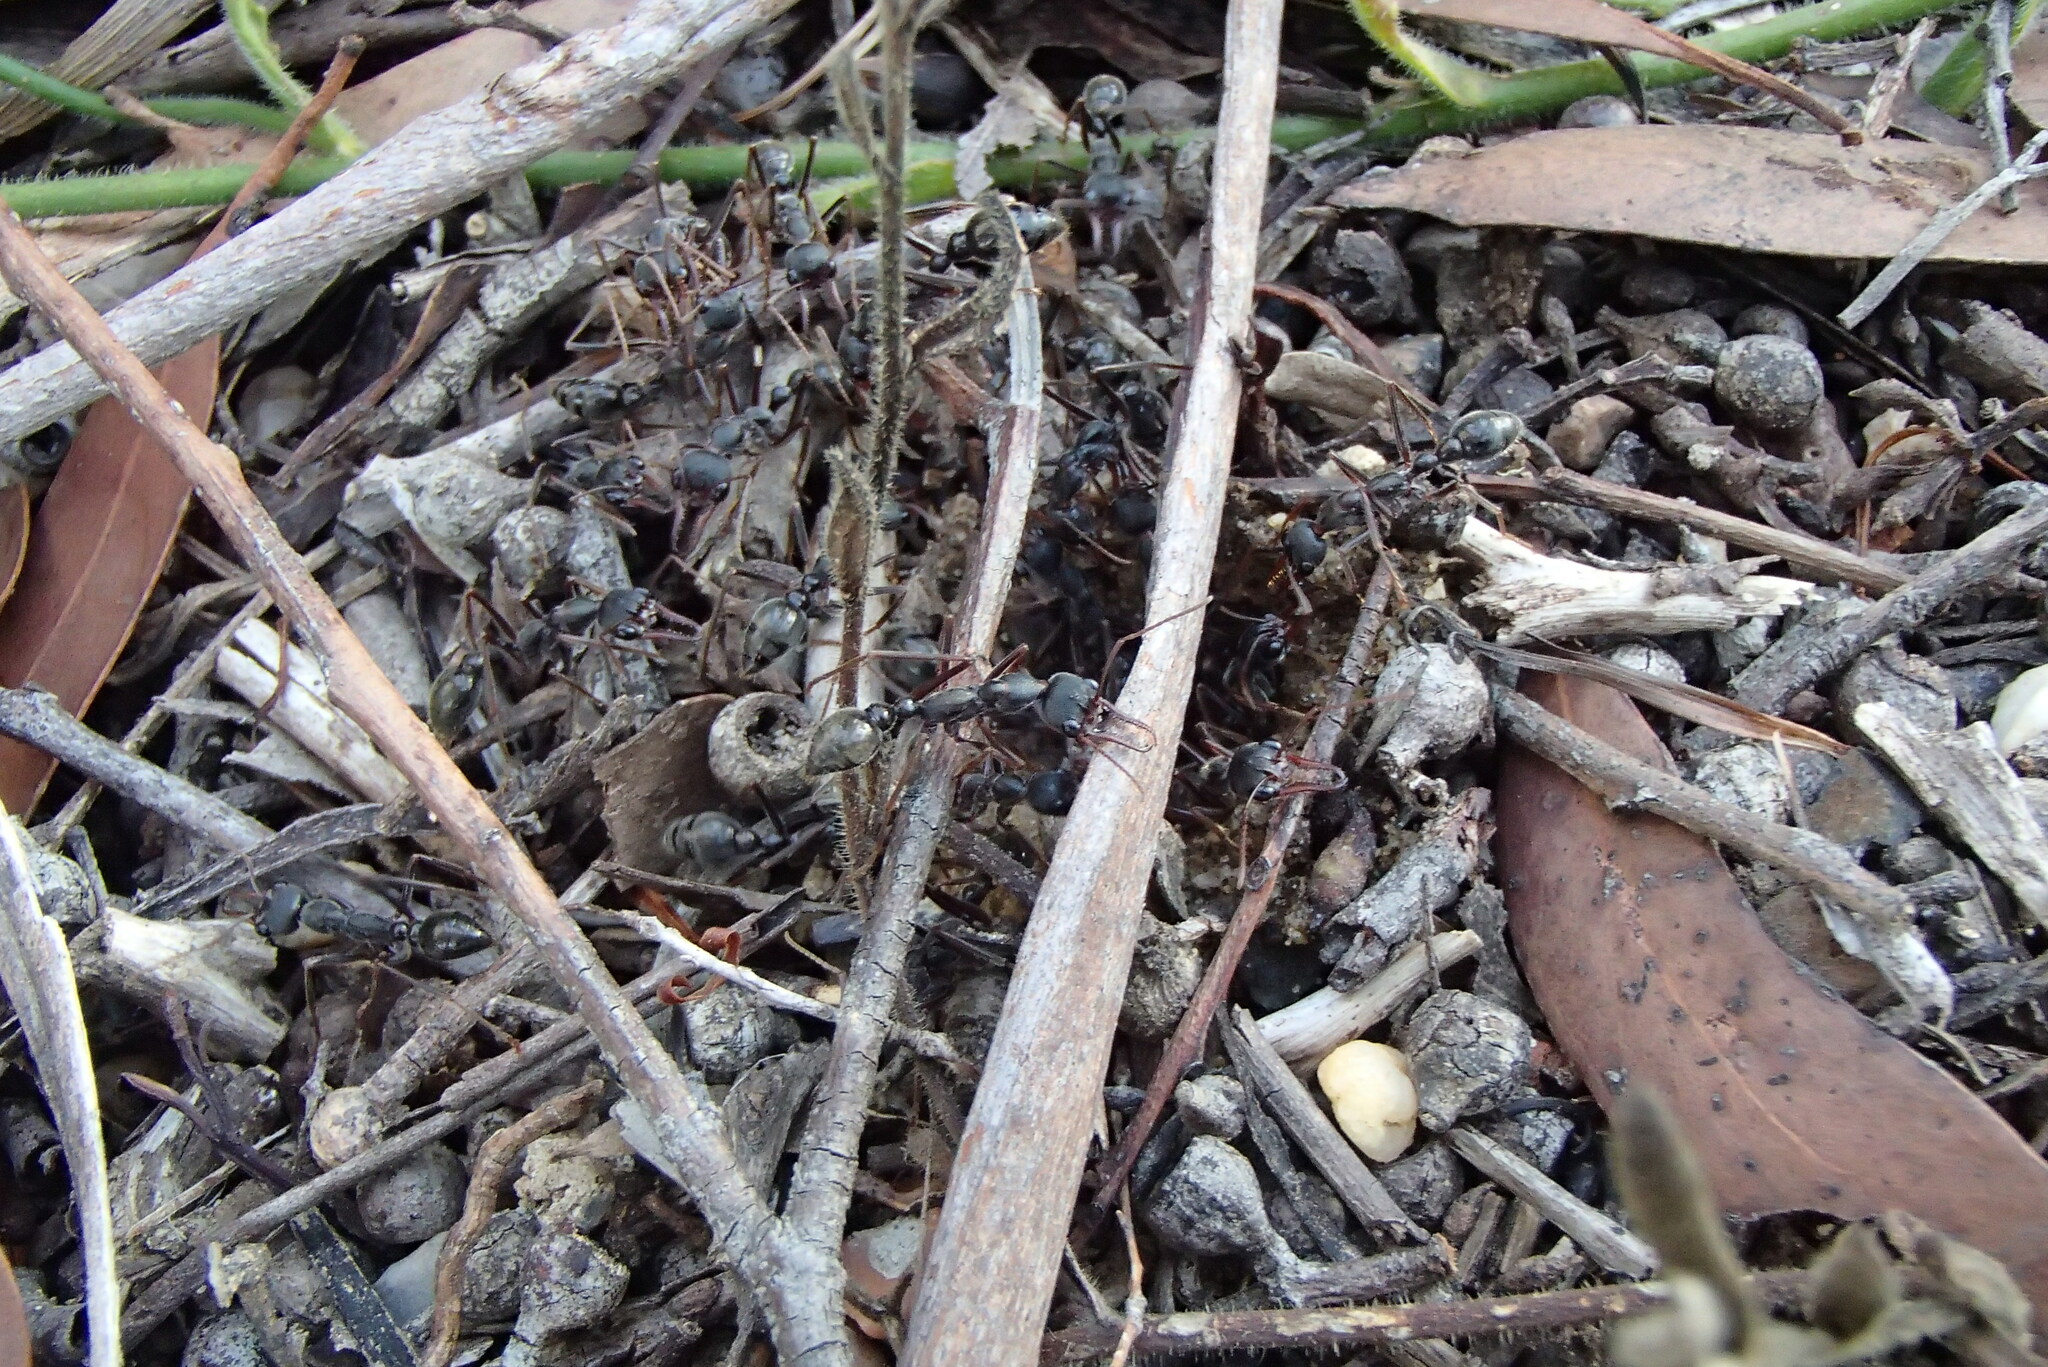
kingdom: Animalia
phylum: Arthropoda
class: Insecta
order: Hymenoptera
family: Formicidae
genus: Myrmecia
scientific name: Myrmecia pyriformis
